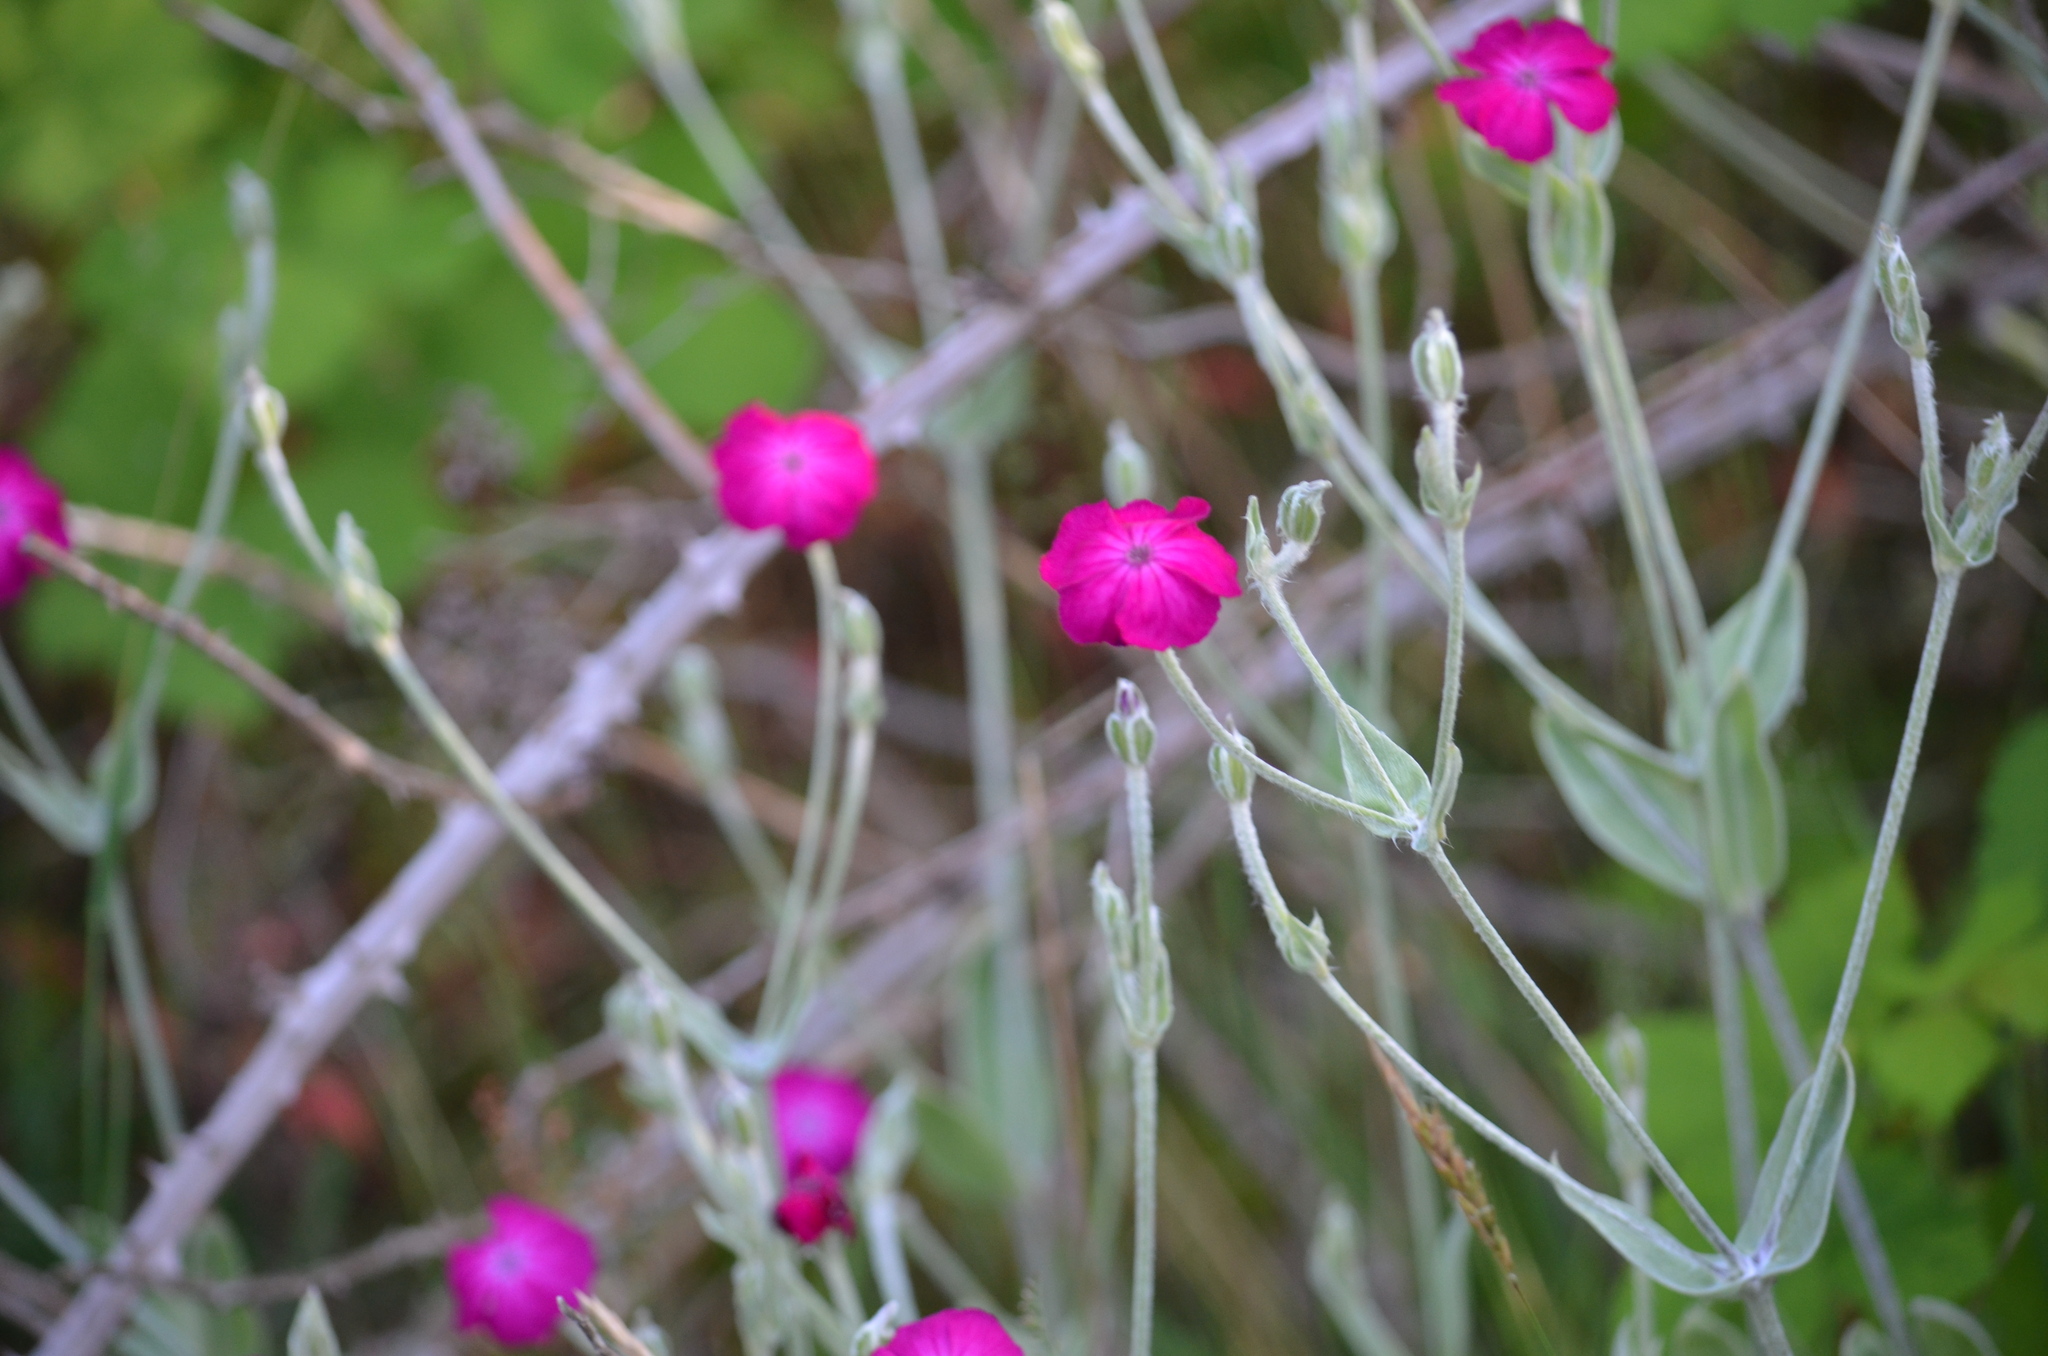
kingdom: Plantae
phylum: Tracheophyta
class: Magnoliopsida
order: Caryophyllales
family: Caryophyllaceae
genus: Silene
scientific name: Silene coronaria
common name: Rose campion
